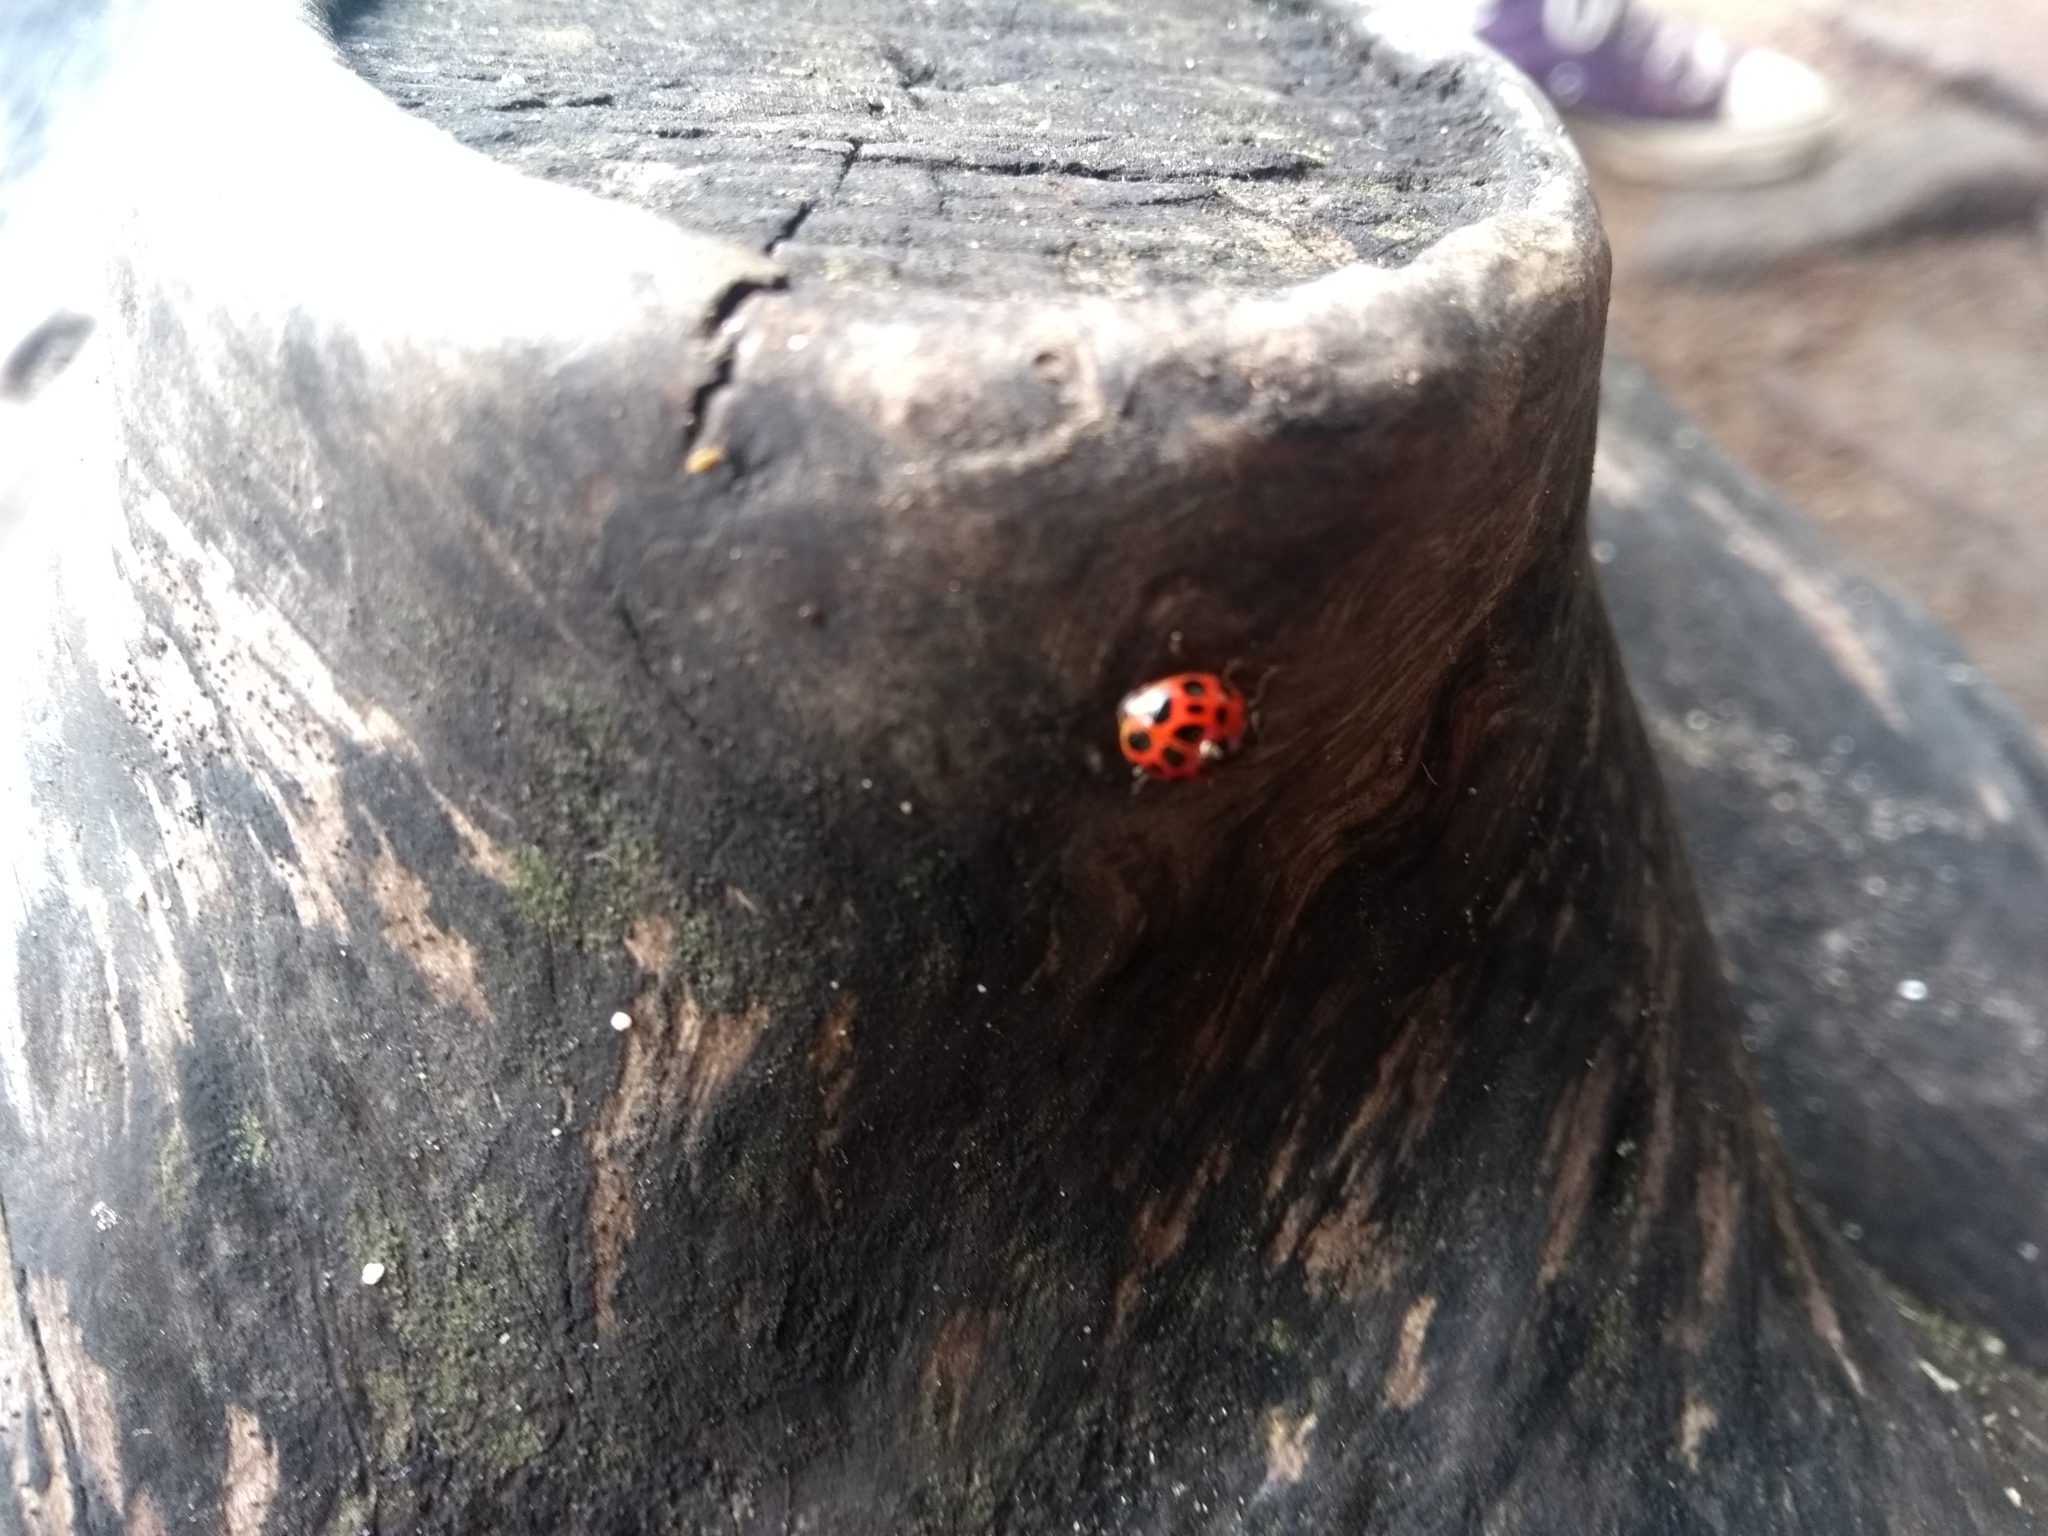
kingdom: Animalia
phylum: Arthropoda
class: Insecta
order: Coleoptera
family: Coccinellidae
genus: Harmonia
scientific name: Harmonia axyridis
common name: Harlequin ladybird
